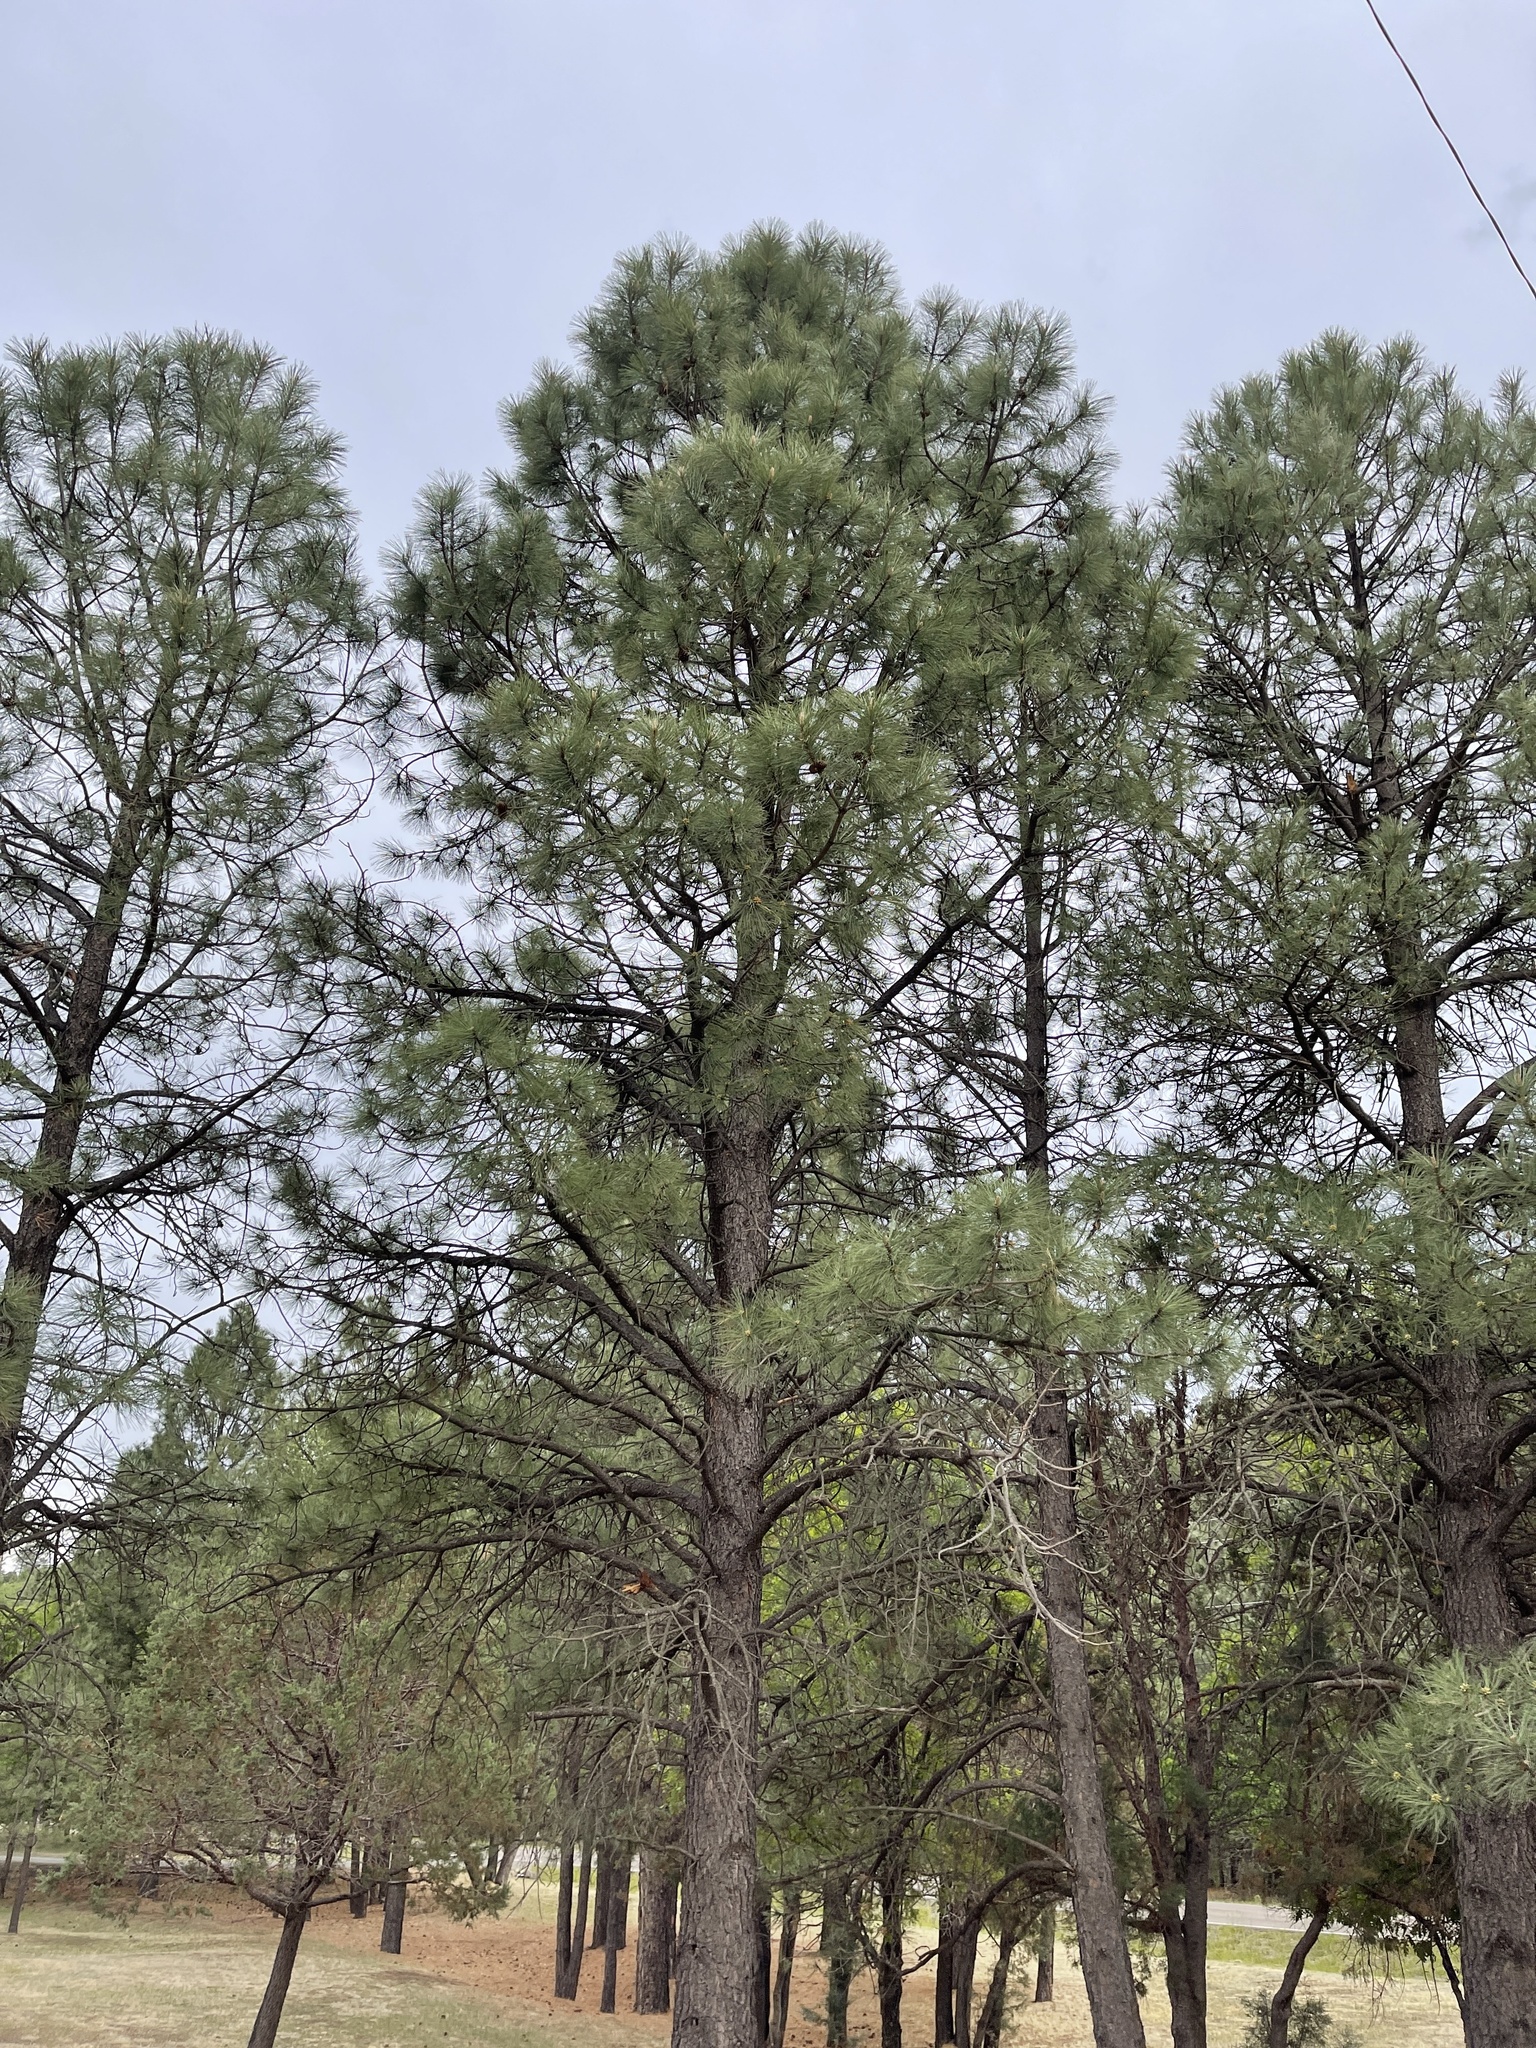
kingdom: Plantae
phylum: Tracheophyta
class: Pinopsida
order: Pinales
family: Pinaceae
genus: Pinus
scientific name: Pinus ponderosa
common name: Western yellow-pine
